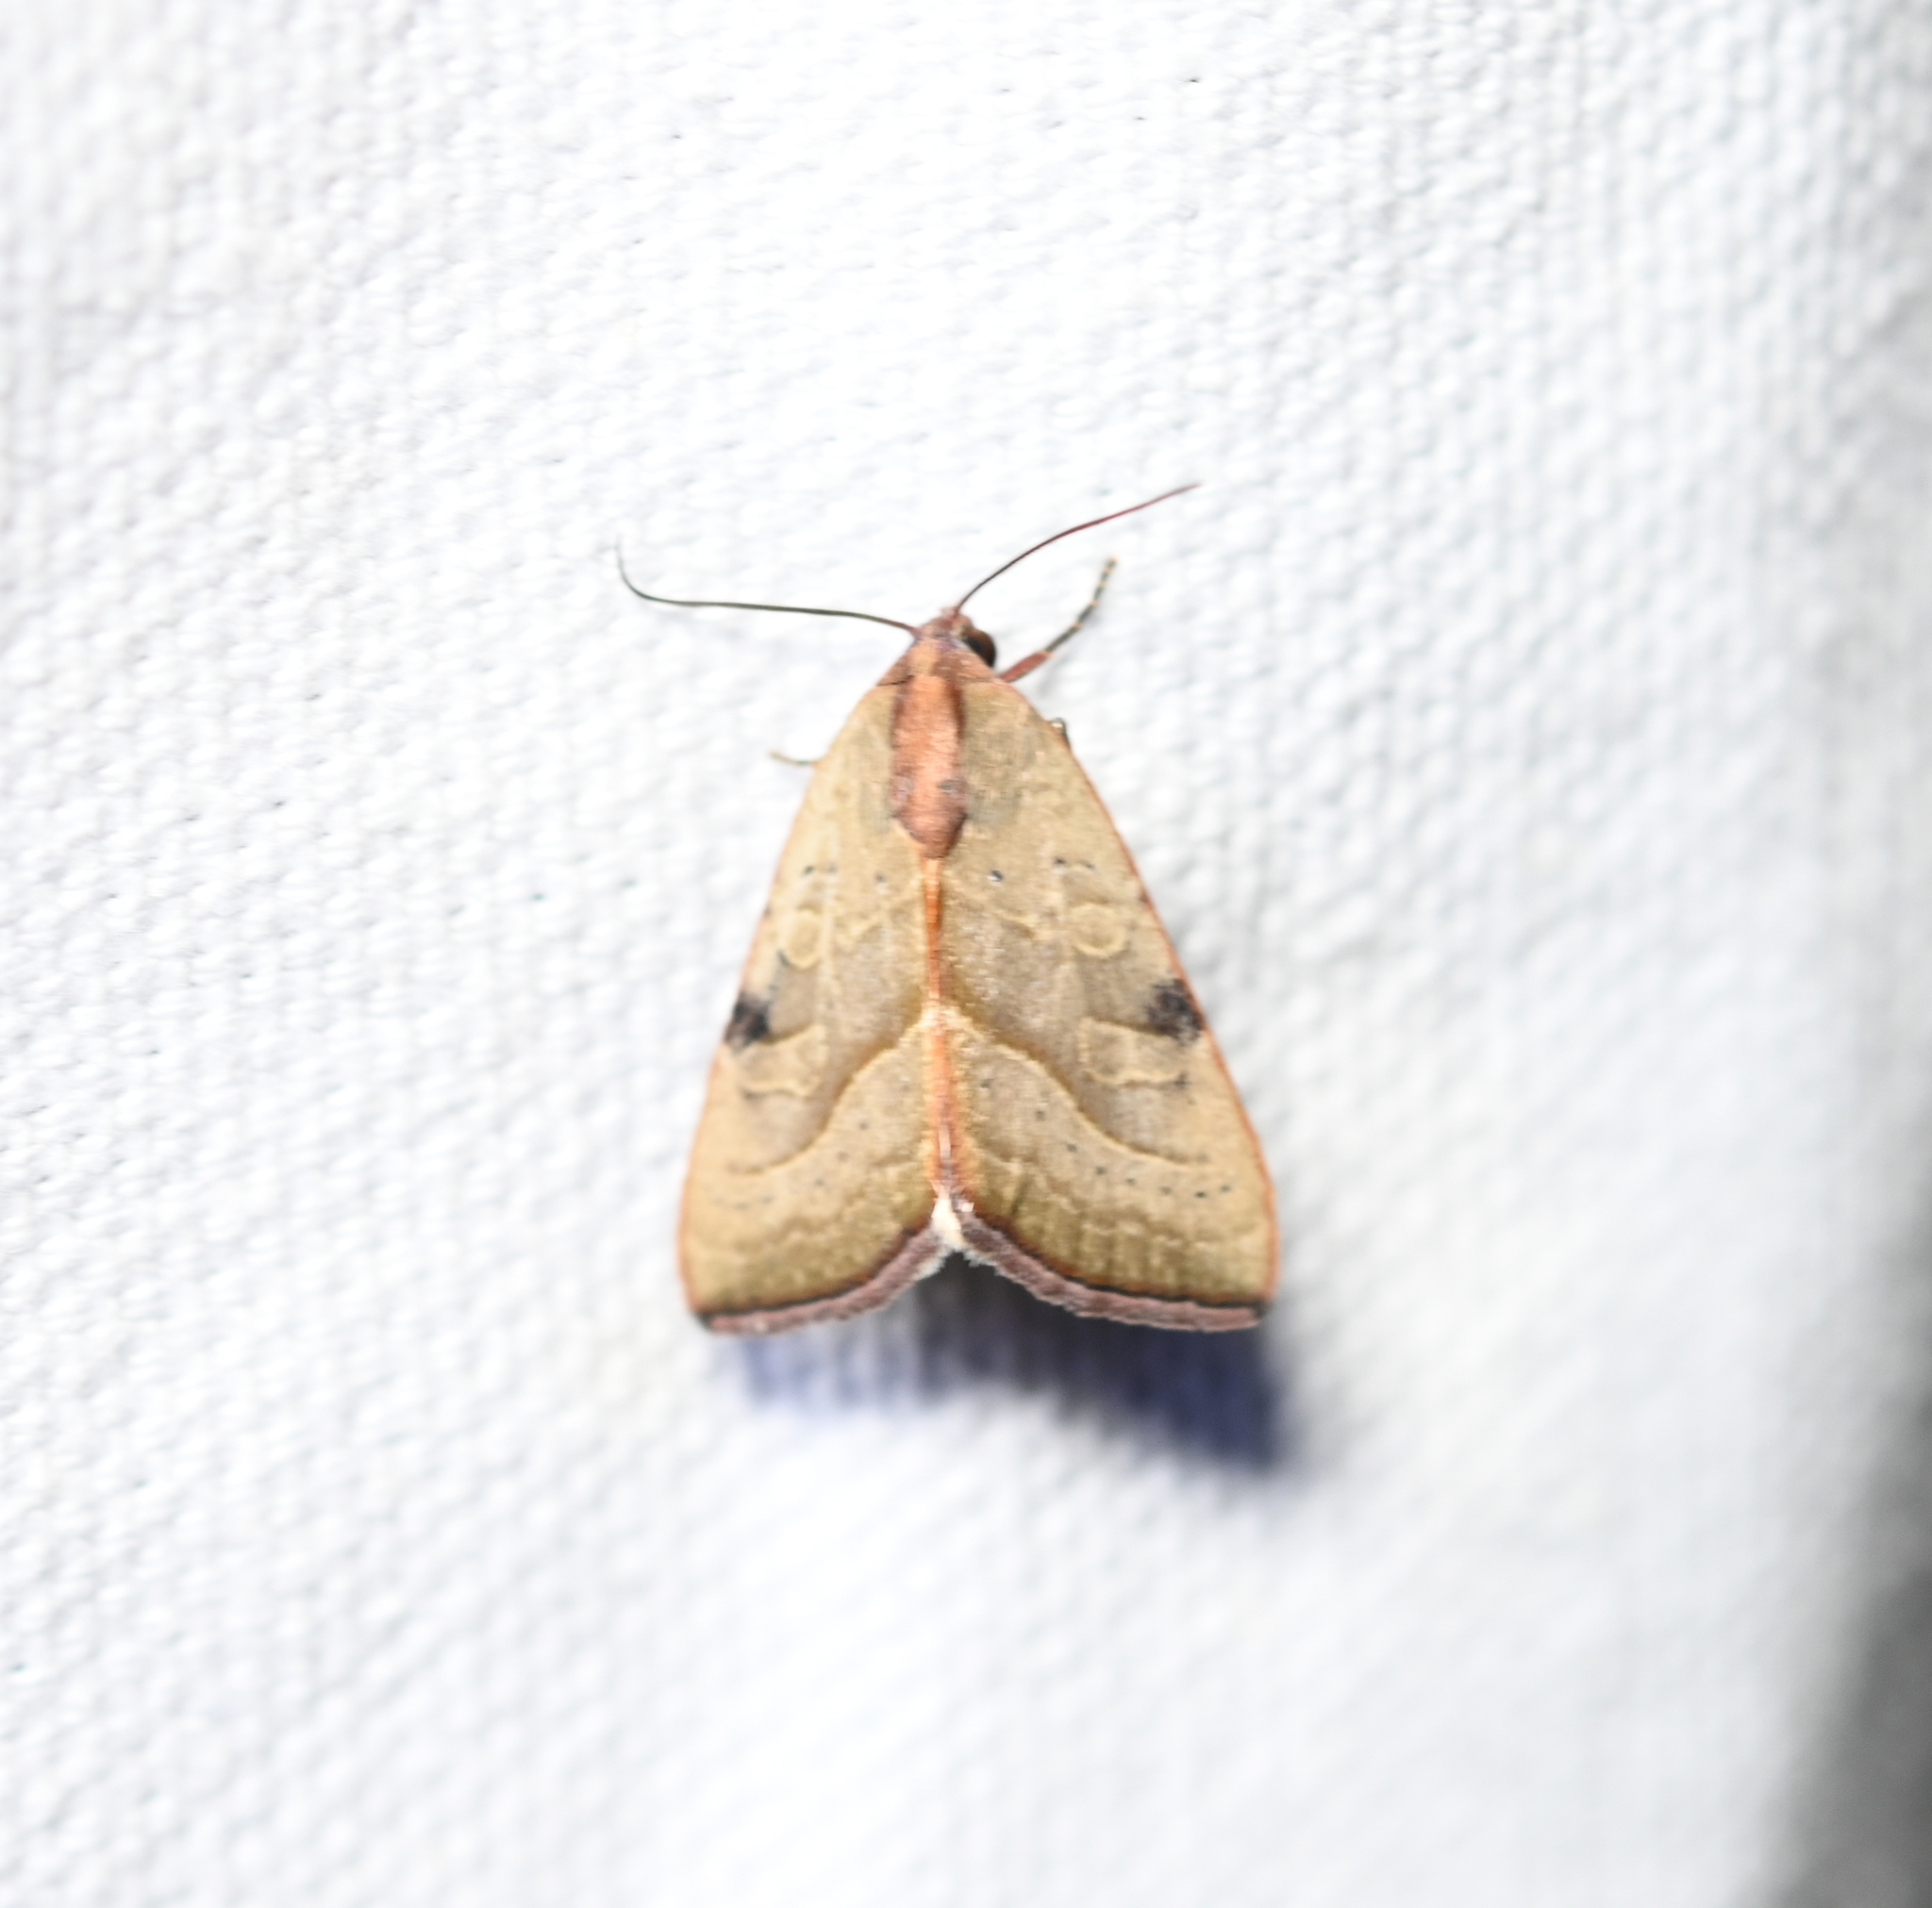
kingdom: Animalia
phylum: Arthropoda
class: Insecta
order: Lepidoptera
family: Noctuidae
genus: Galgula
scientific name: Galgula partita
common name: Wedgeling
